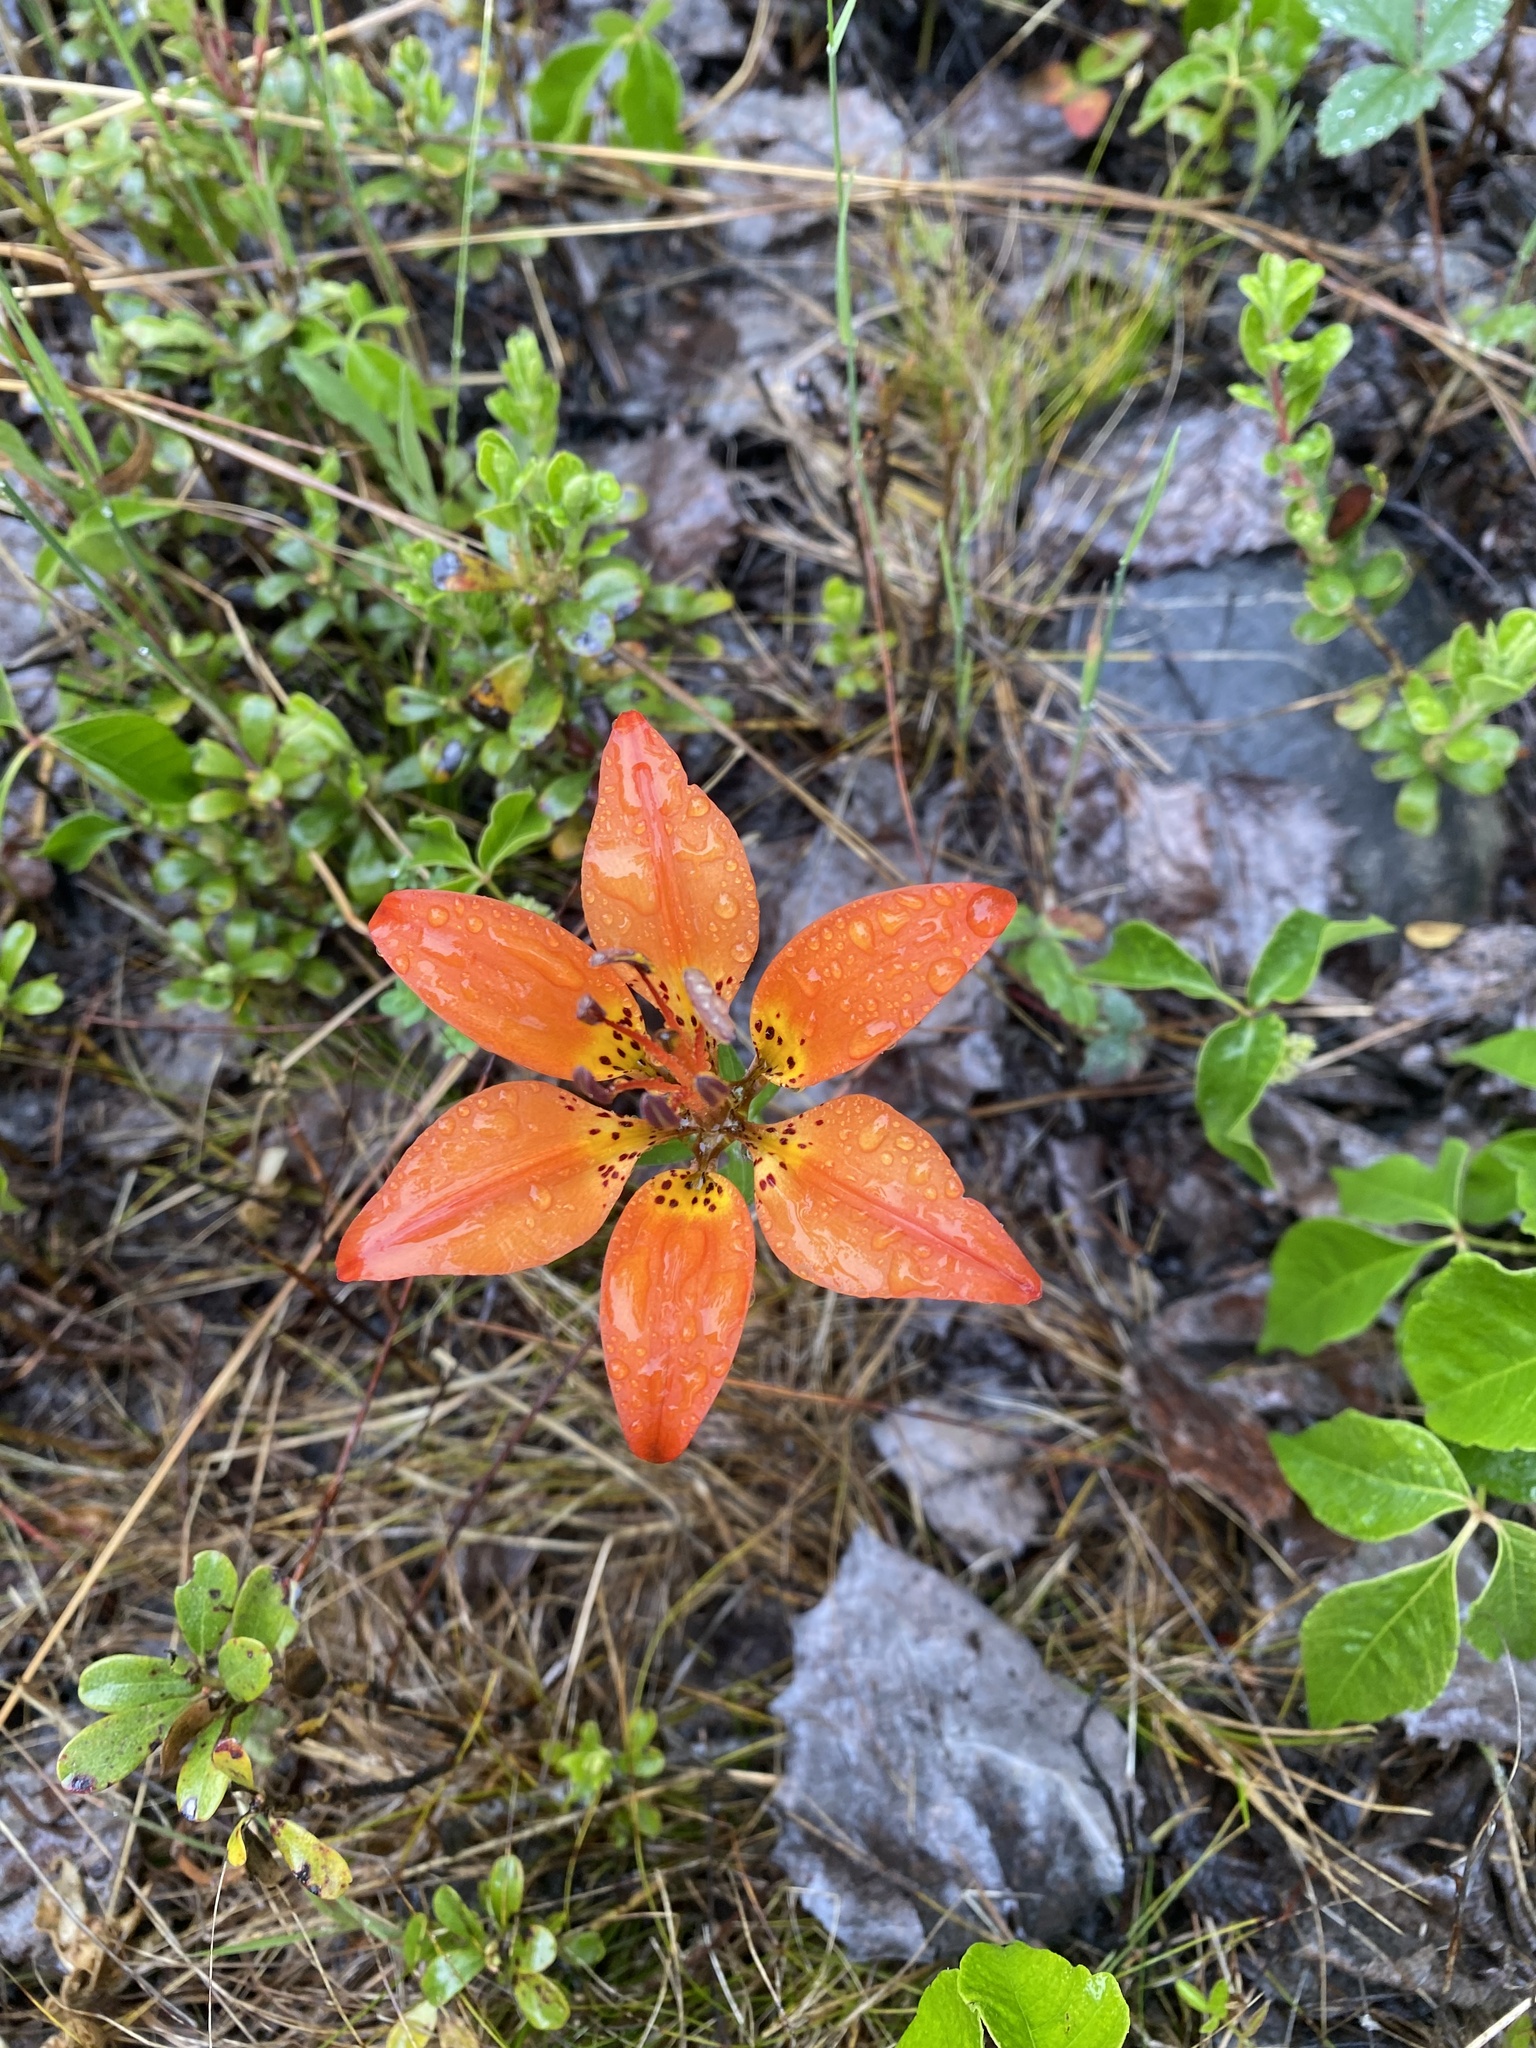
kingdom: Plantae
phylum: Tracheophyta
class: Liliopsida
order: Liliales
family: Liliaceae
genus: Lilium
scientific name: Lilium philadelphicum
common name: Red lily
